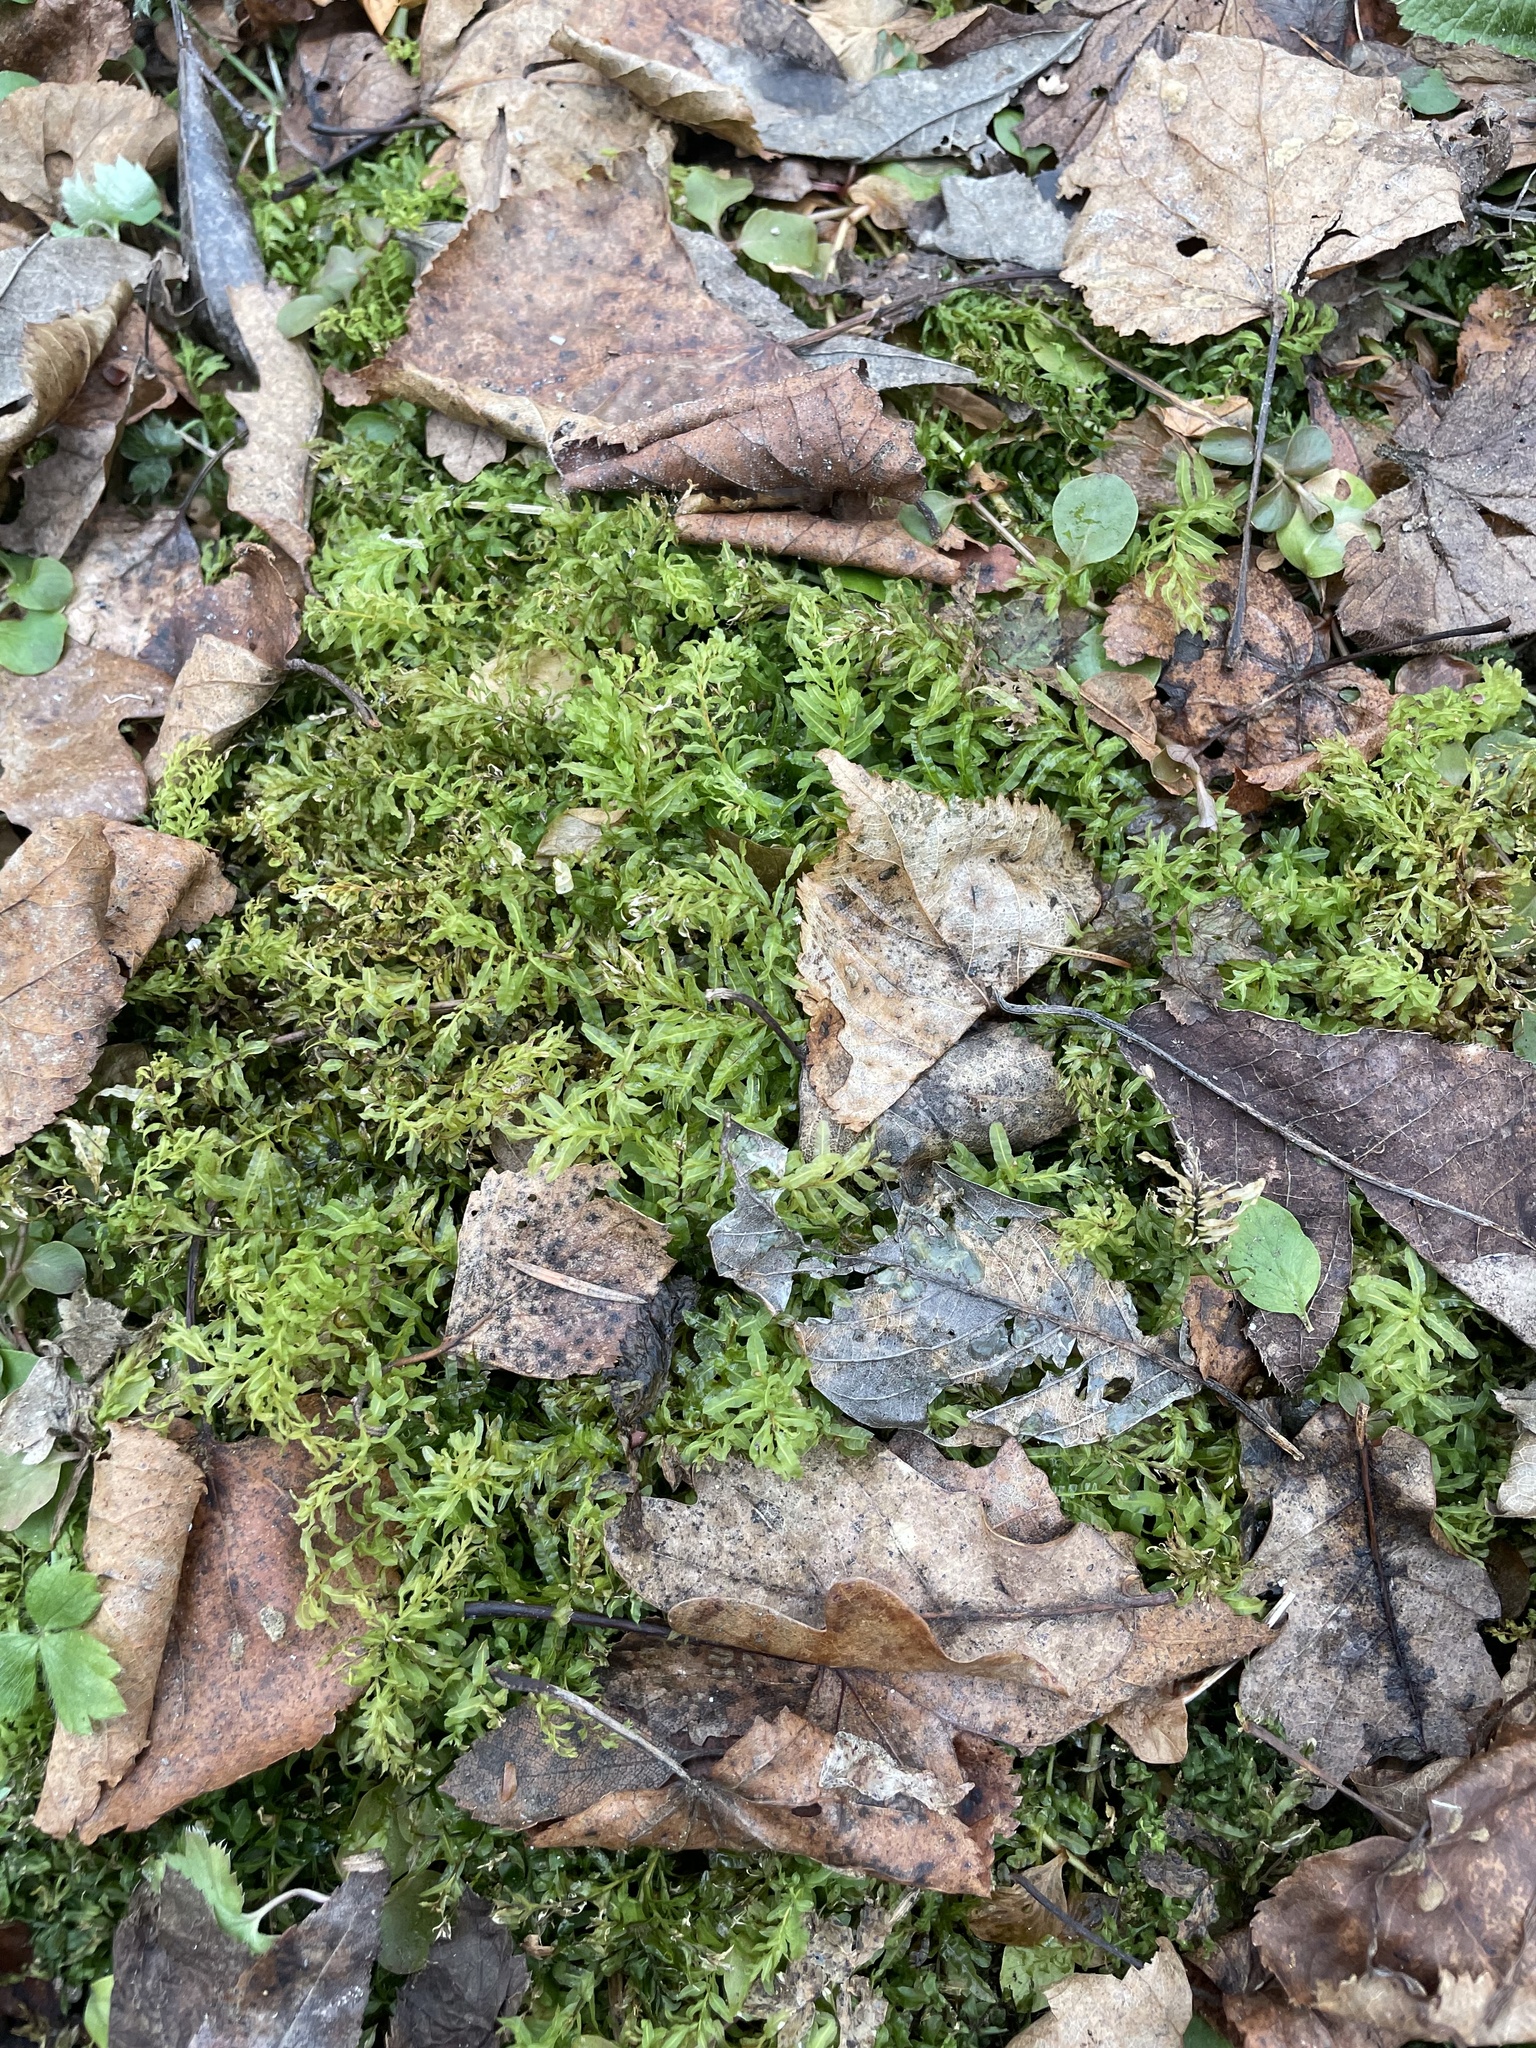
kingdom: Plantae
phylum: Bryophyta
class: Bryopsida
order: Bryales
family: Mniaceae
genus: Plagiomnium
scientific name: Plagiomnium undulatum
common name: Hart's-tongue thyme-moss
